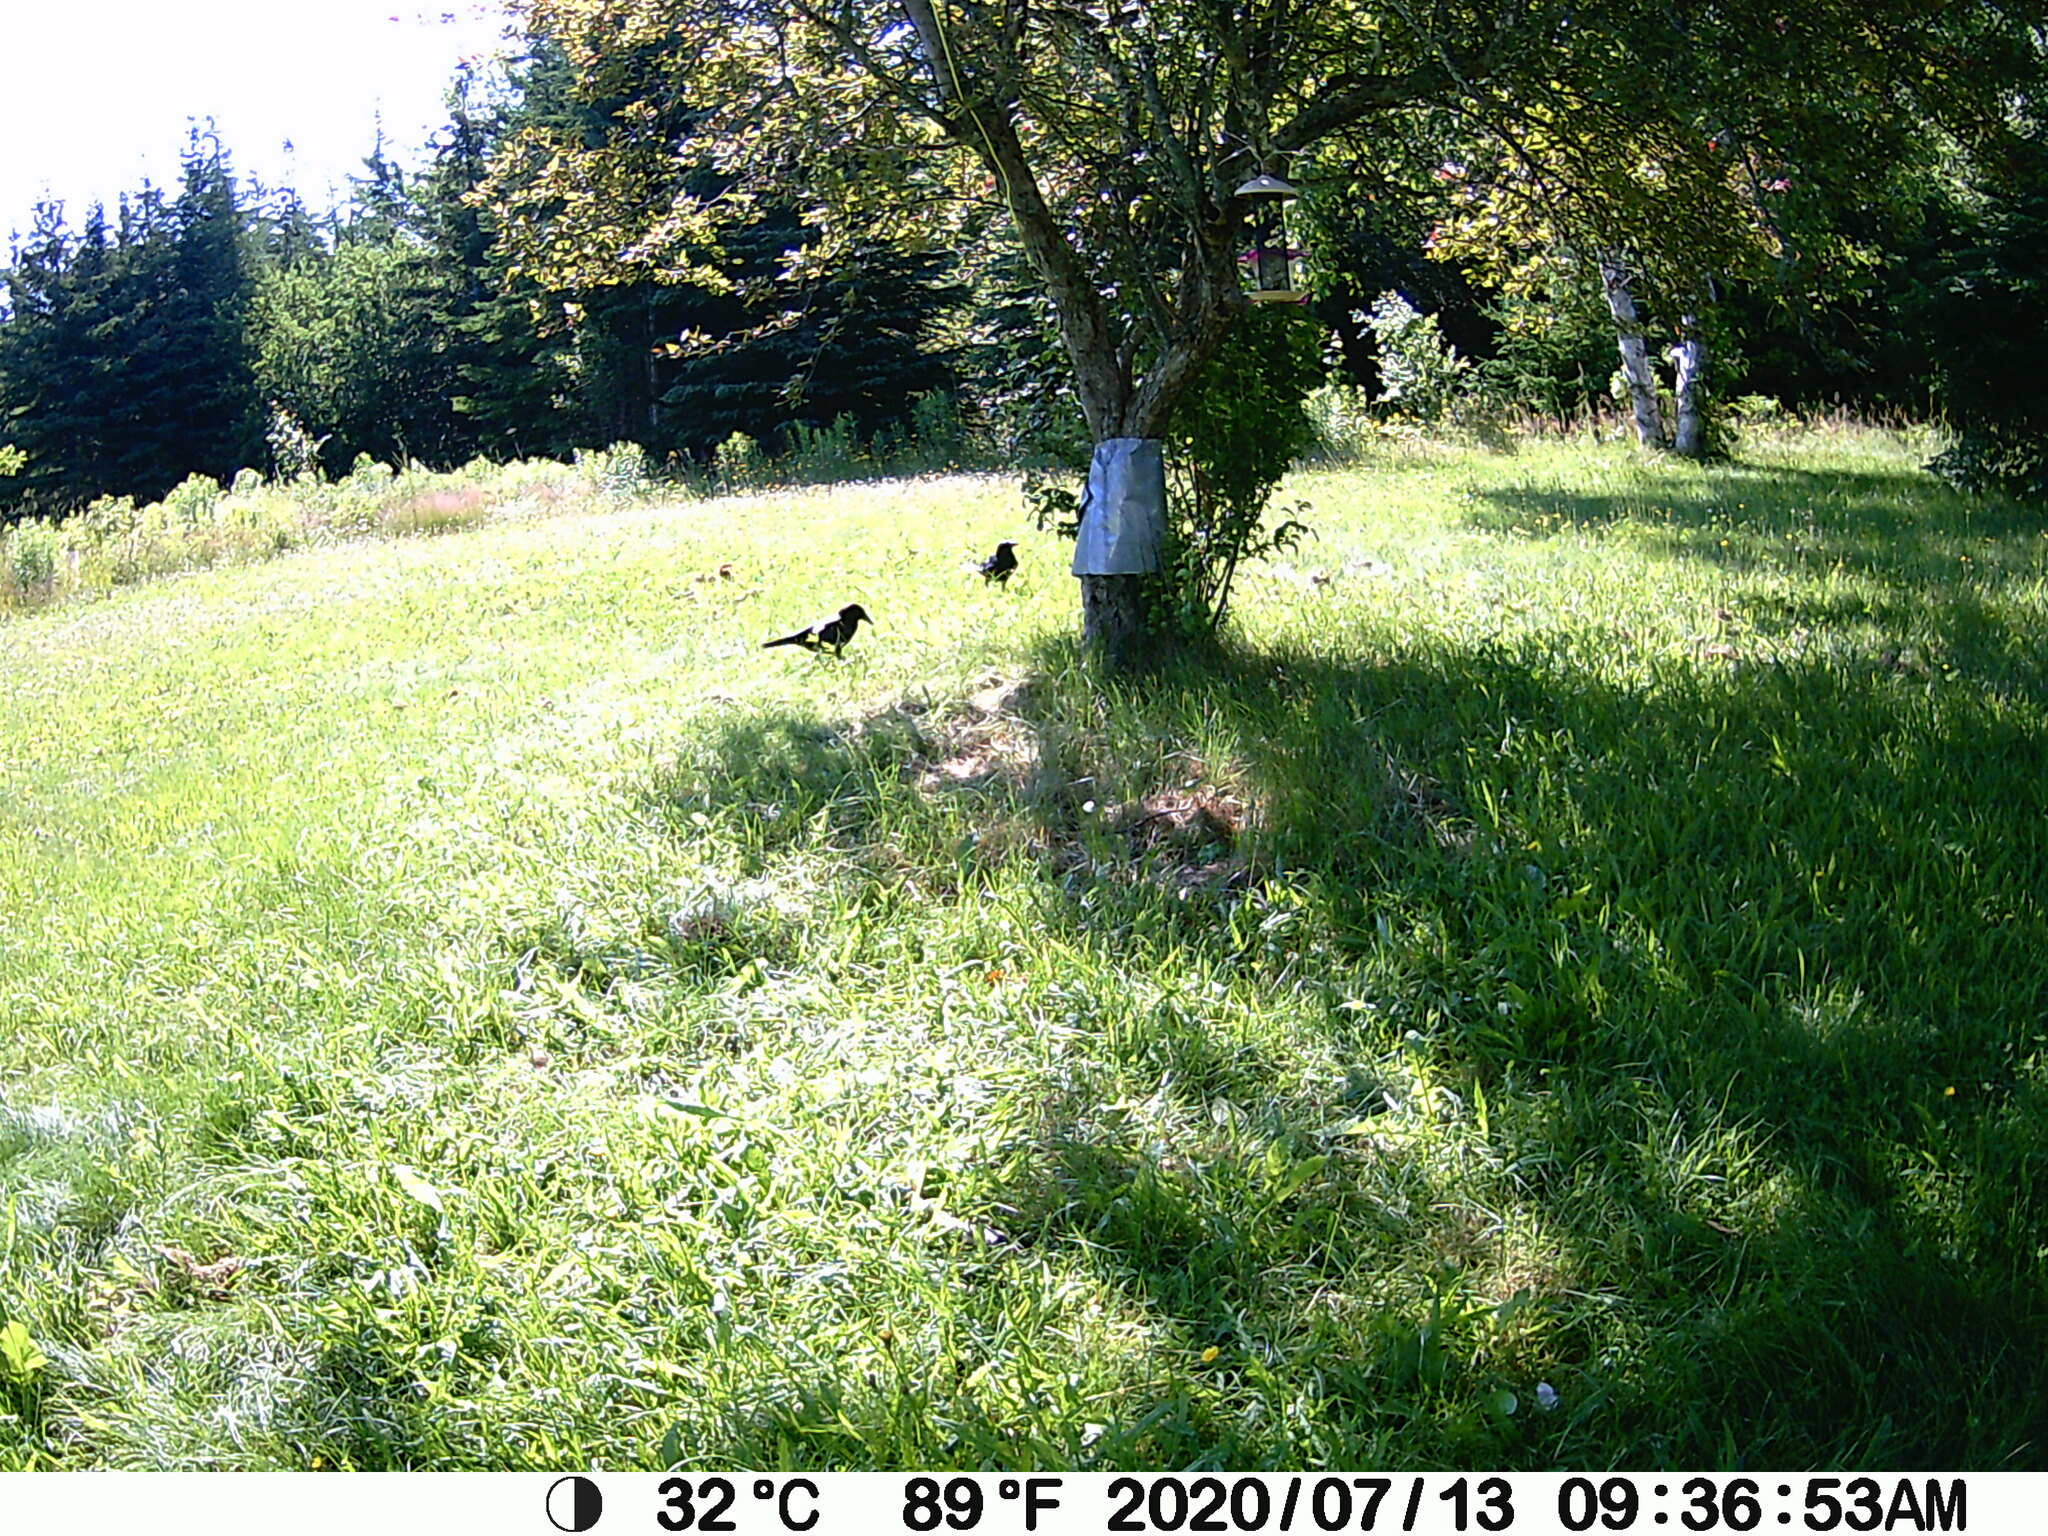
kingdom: Animalia
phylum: Chordata
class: Aves
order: Passeriformes
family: Corvidae
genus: Corvus
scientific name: Corvus brachyrhynchos
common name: American crow
